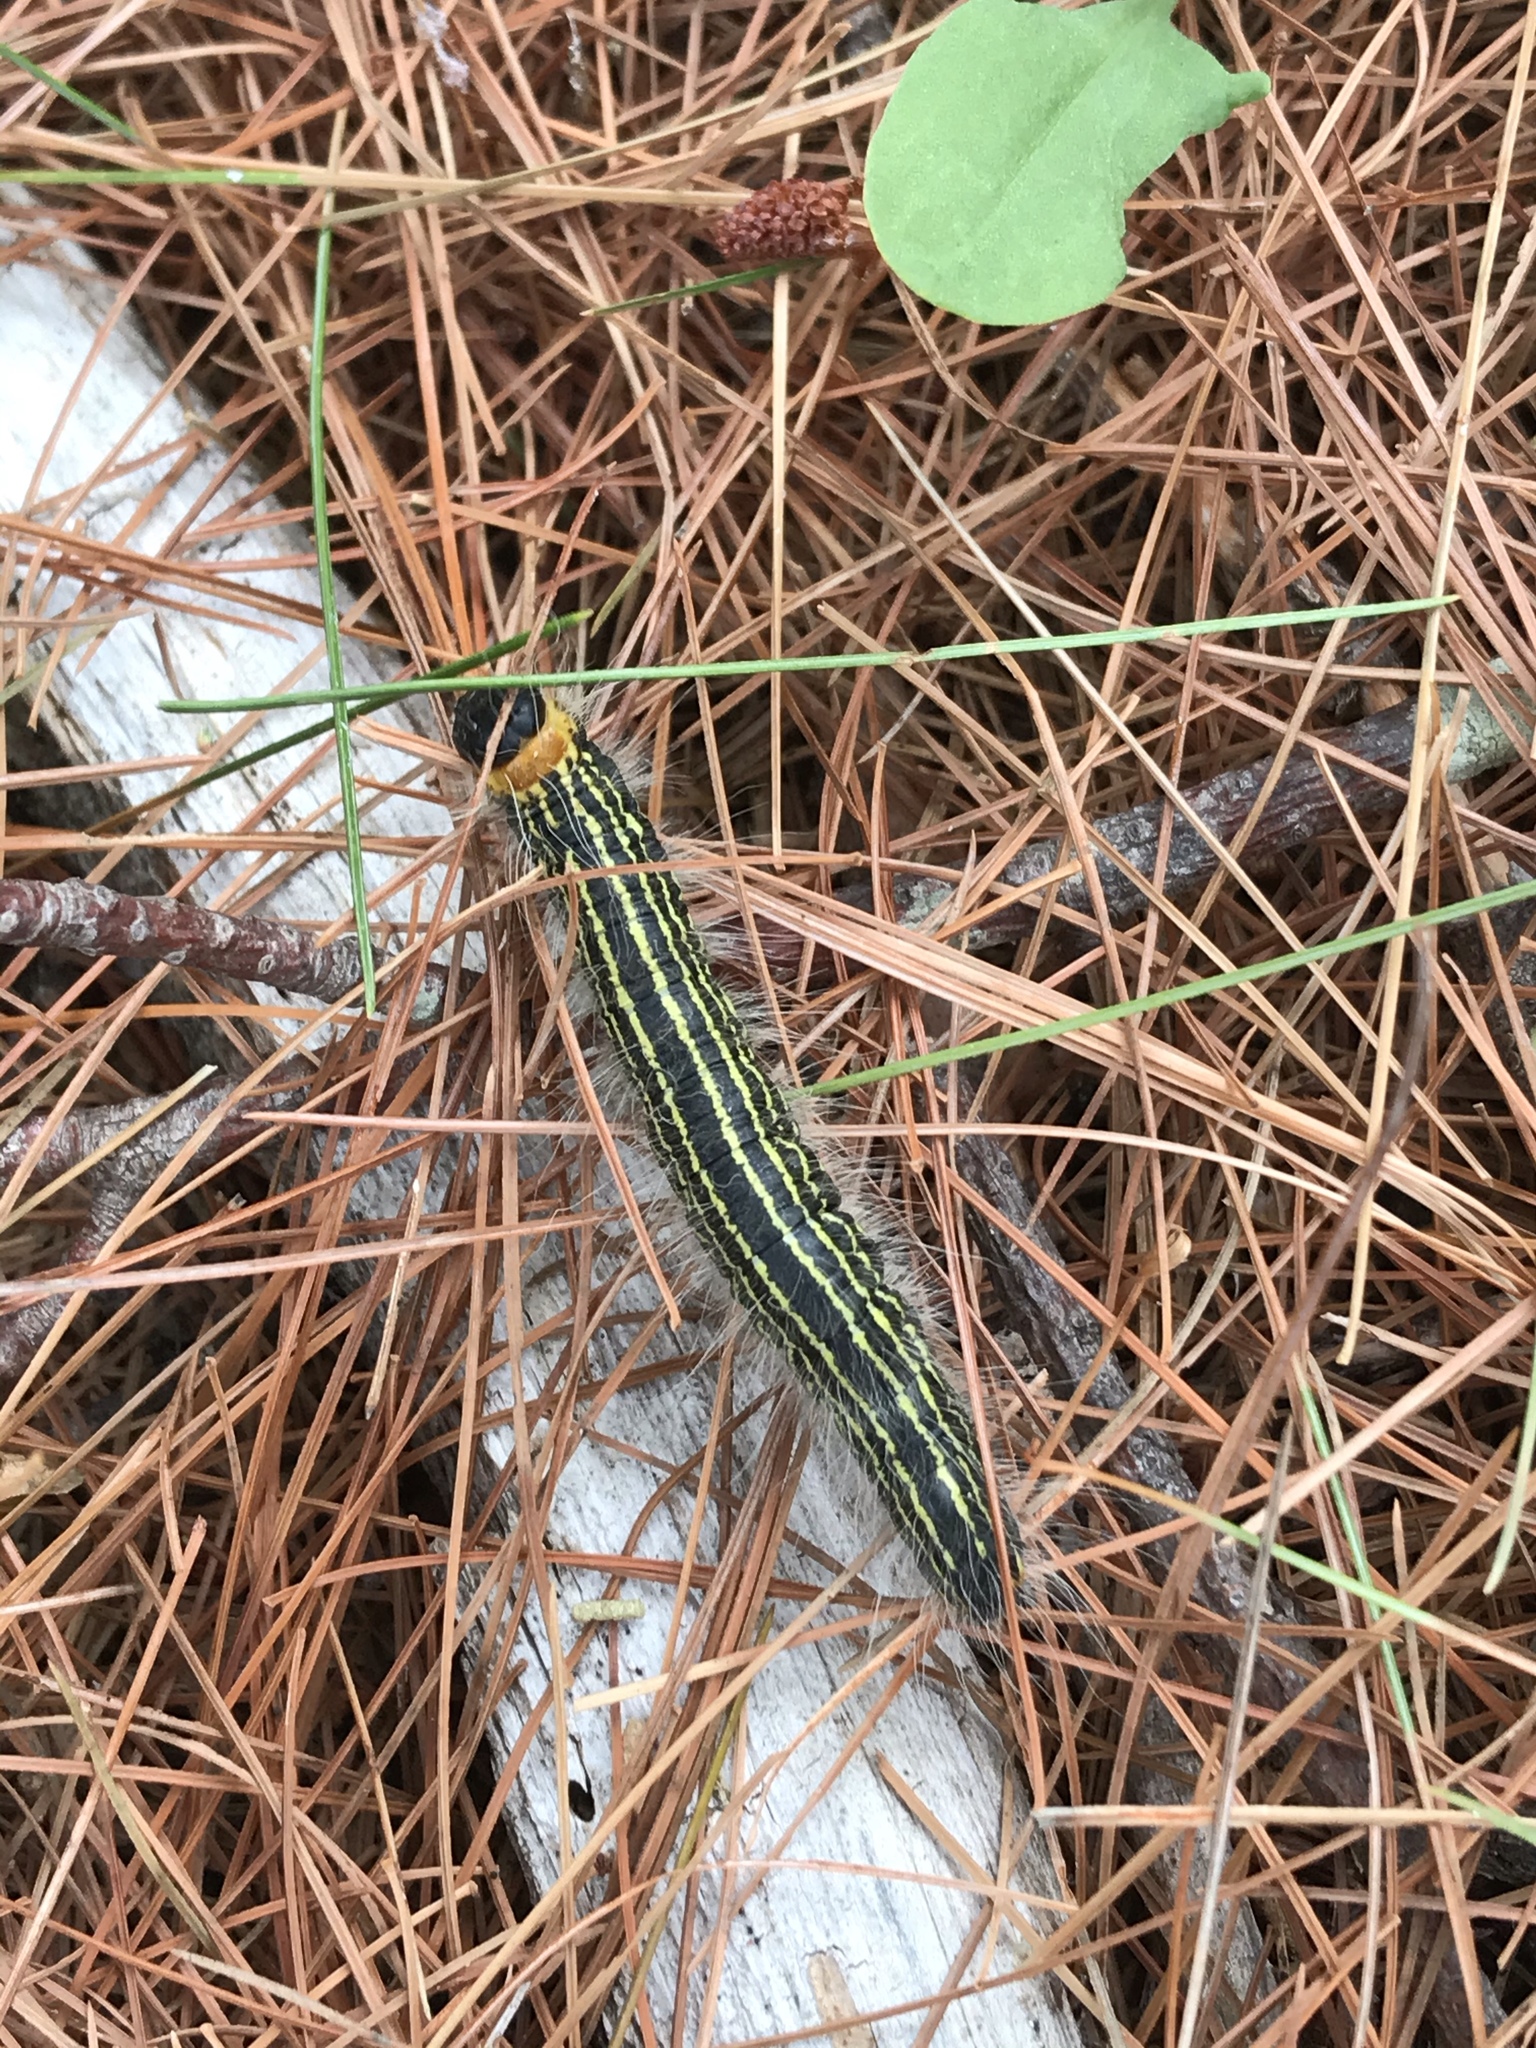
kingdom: Animalia
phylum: Arthropoda
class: Insecta
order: Lepidoptera
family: Notodontidae
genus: Datana
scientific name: Datana ministra
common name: Yellow-necked caterpillar moth
